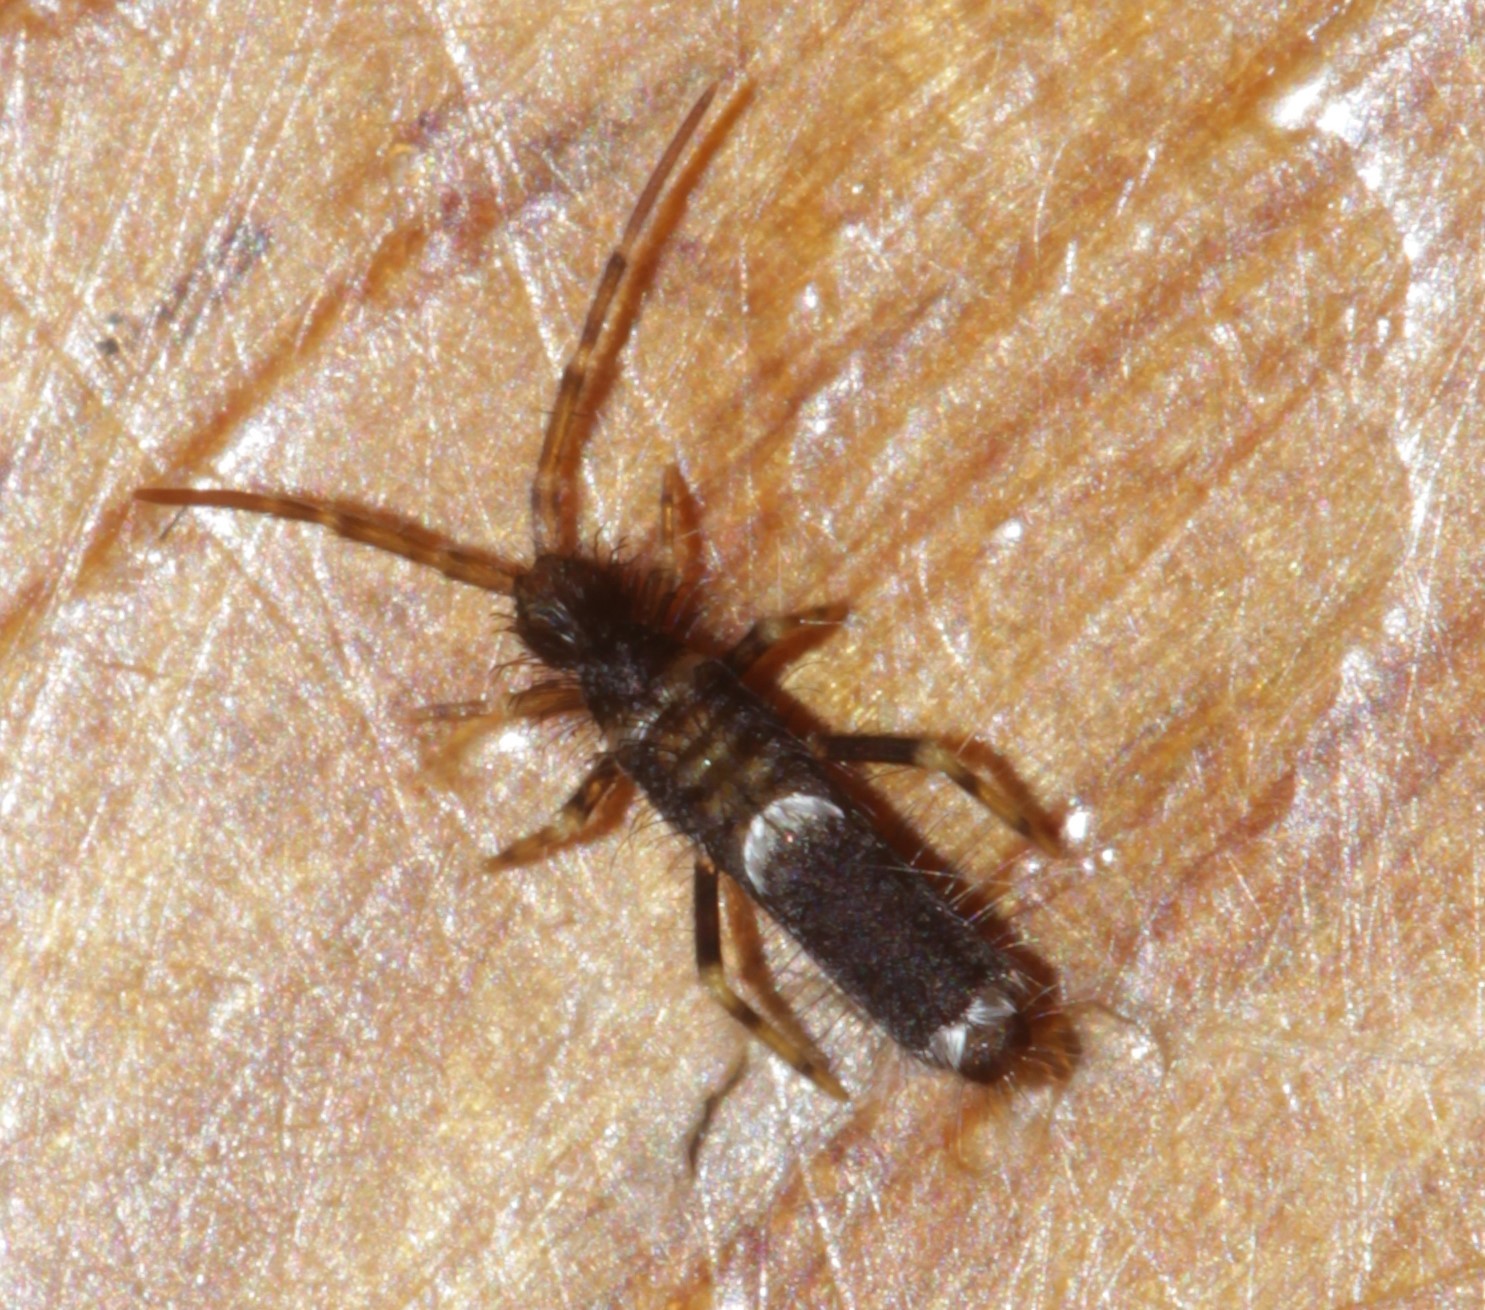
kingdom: Animalia
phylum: Arthropoda
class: Collembola
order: Entomobryomorpha
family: Entomobryidae
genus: Entomobrya
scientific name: Entomobrya dorsalis
